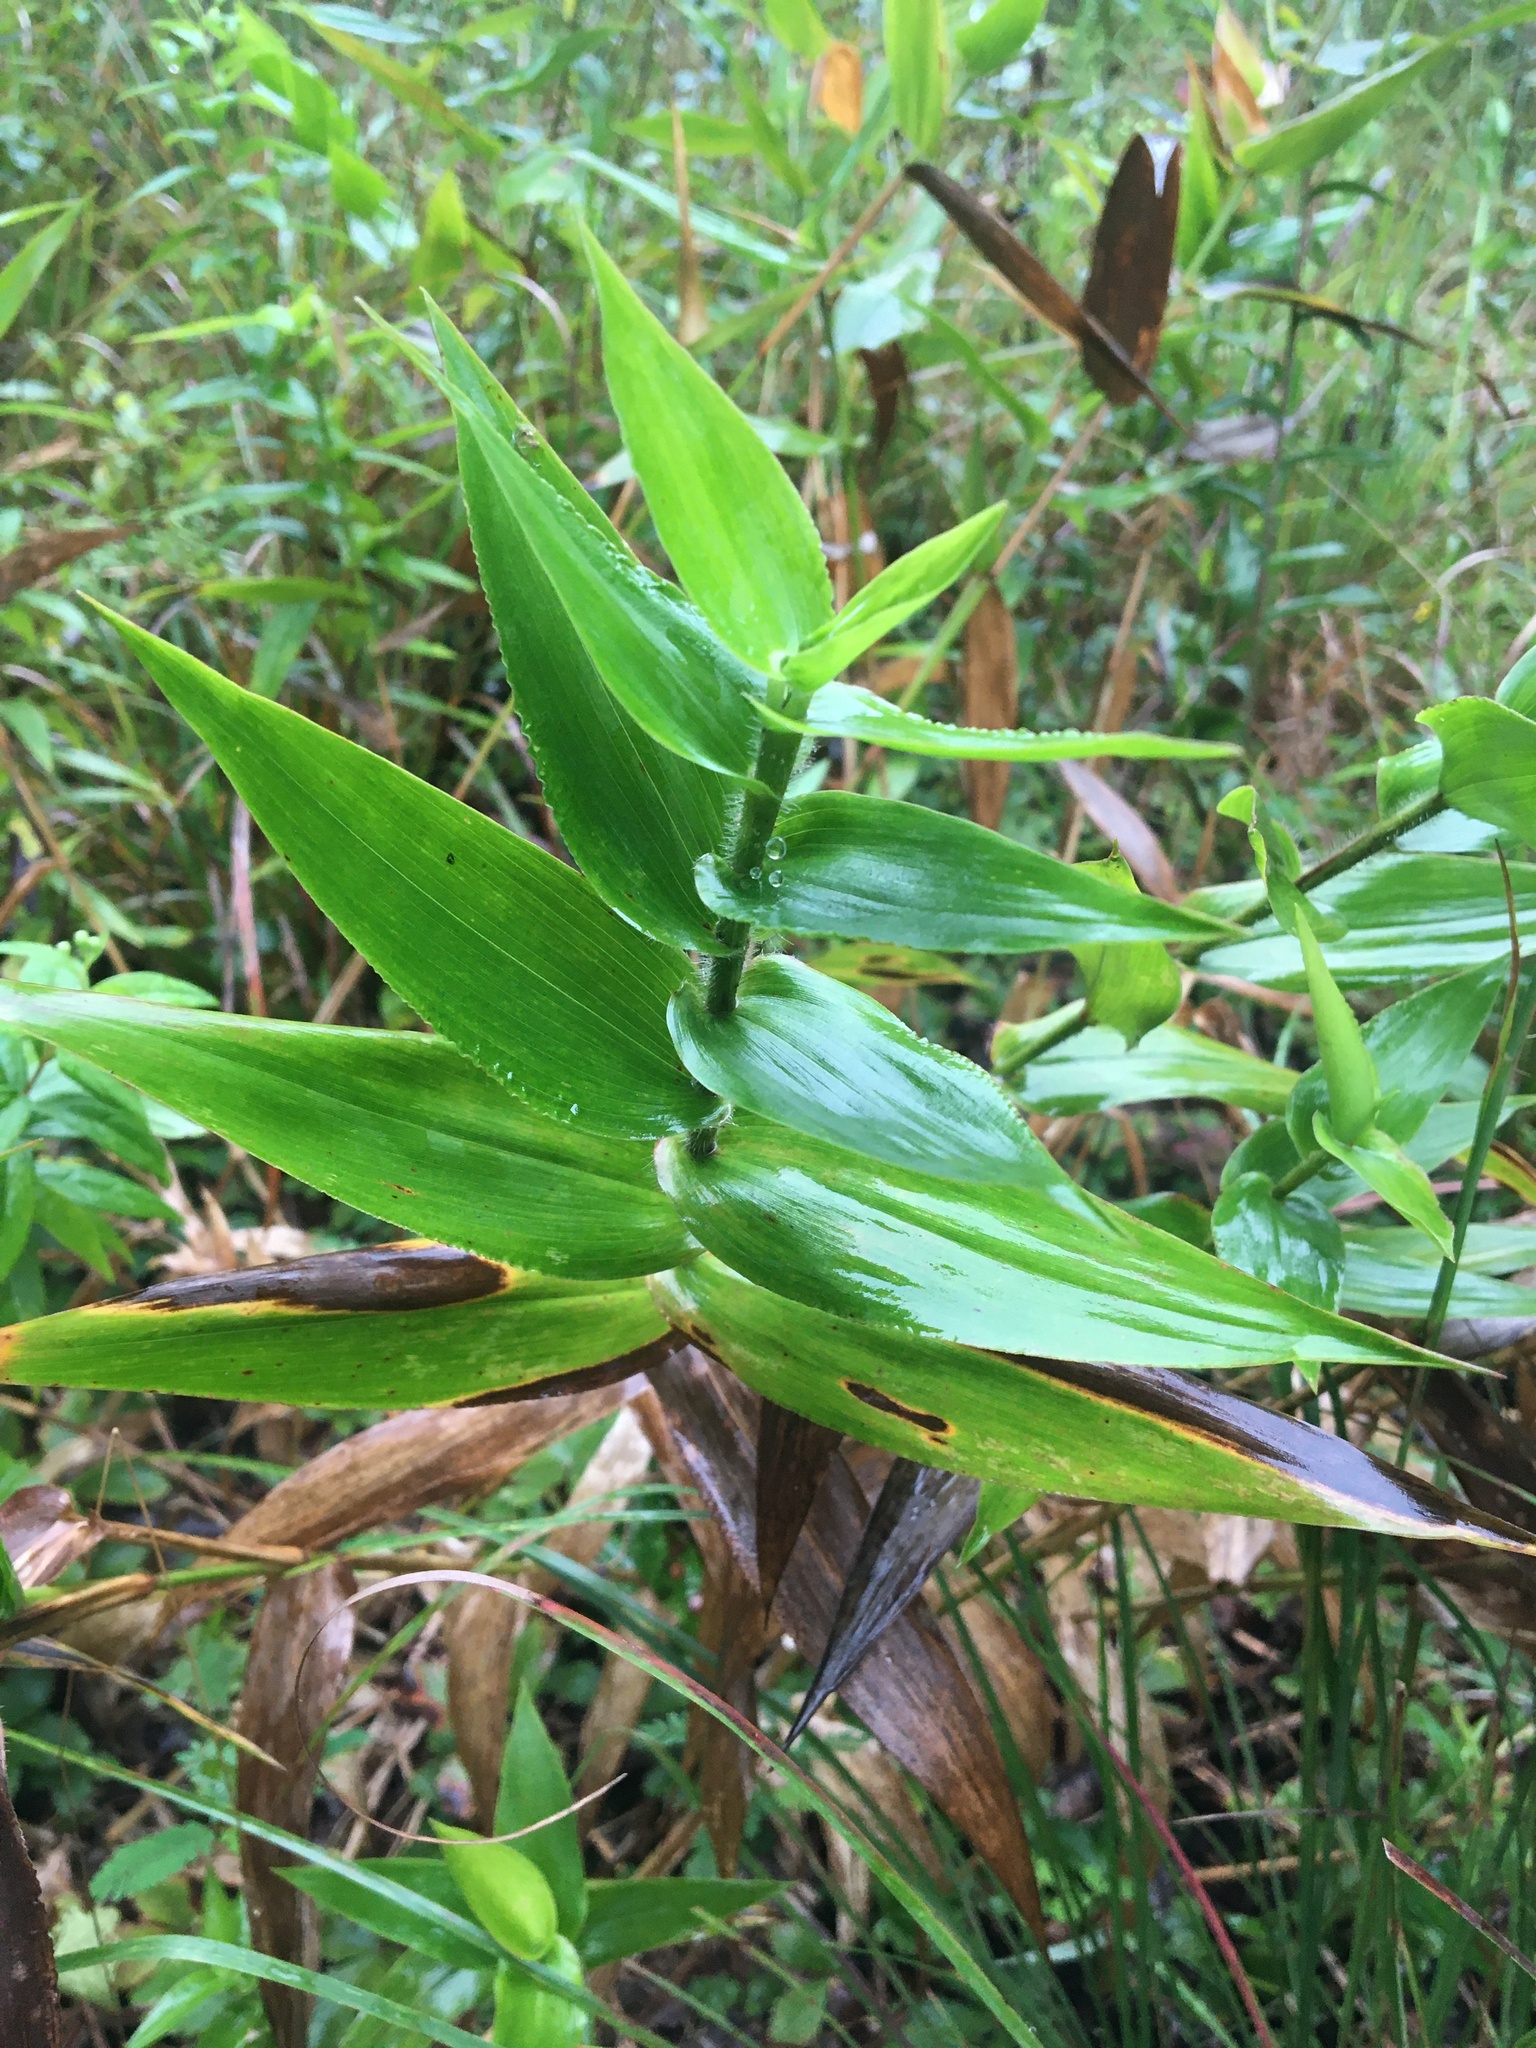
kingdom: Plantae
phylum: Tracheophyta
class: Liliopsida
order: Poales
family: Poaceae
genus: Dichanthelium
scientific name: Dichanthelium clandestinum
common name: Deer-tongue grass
